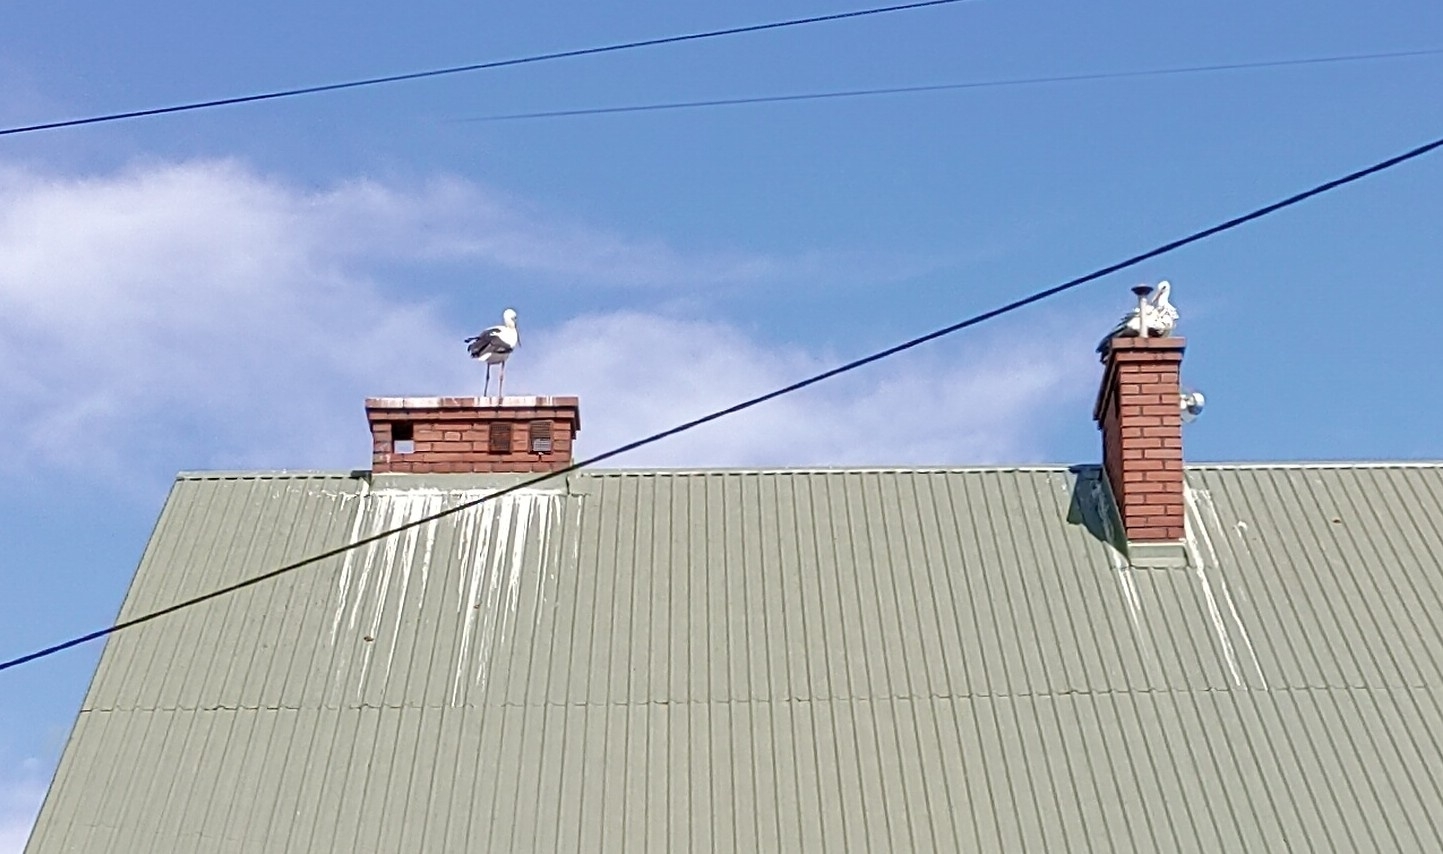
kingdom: Animalia
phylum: Chordata
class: Aves
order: Ciconiiformes
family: Ciconiidae
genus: Ciconia
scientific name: Ciconia ciconia
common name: White stork
